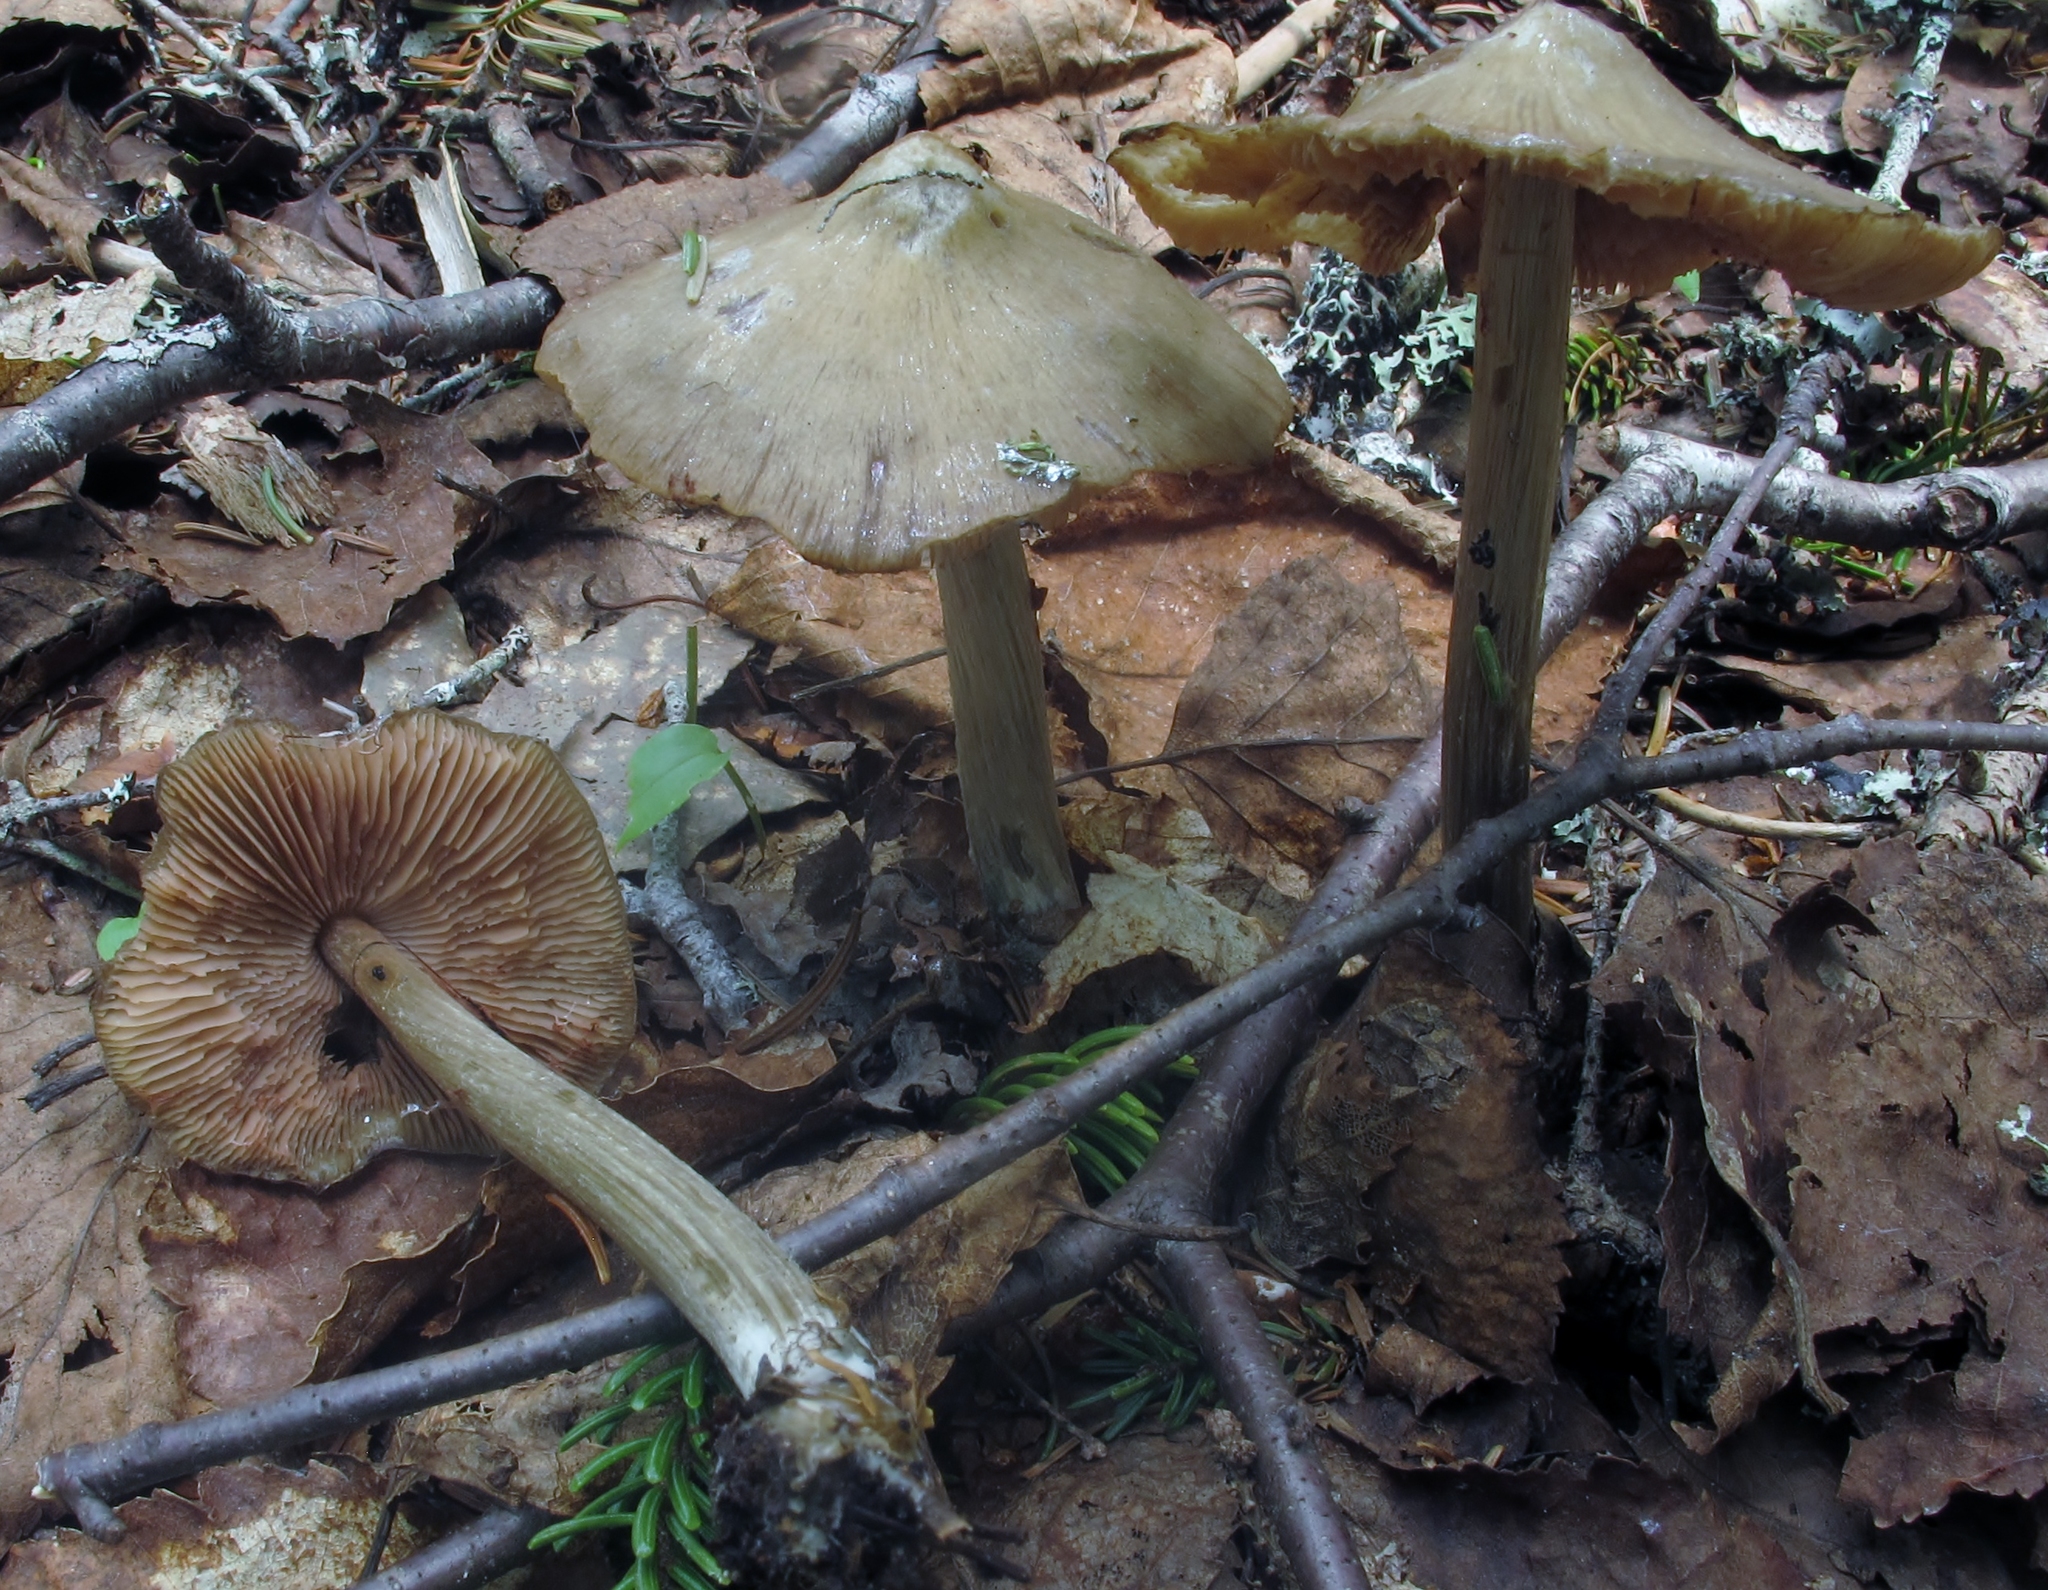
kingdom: Fungi
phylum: Basidiomycota
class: Agaricomycetes
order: Agaricales
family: Entolomataceae
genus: Entoloma
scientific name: Entoloma vernum
